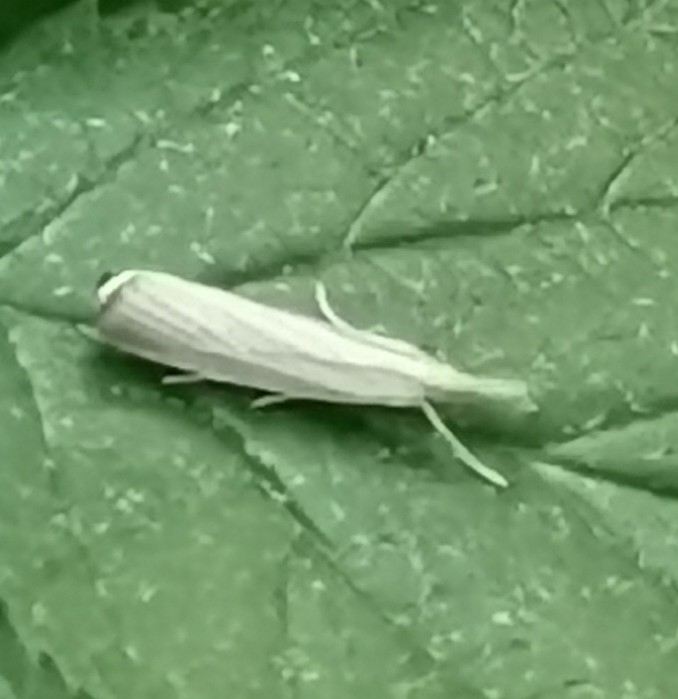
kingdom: Animalia
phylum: Arthropoda
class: Insecta
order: Lepidoptera
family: Crambidae
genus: Agriphila
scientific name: Agriphila straminella
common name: Straw grass-veneer
